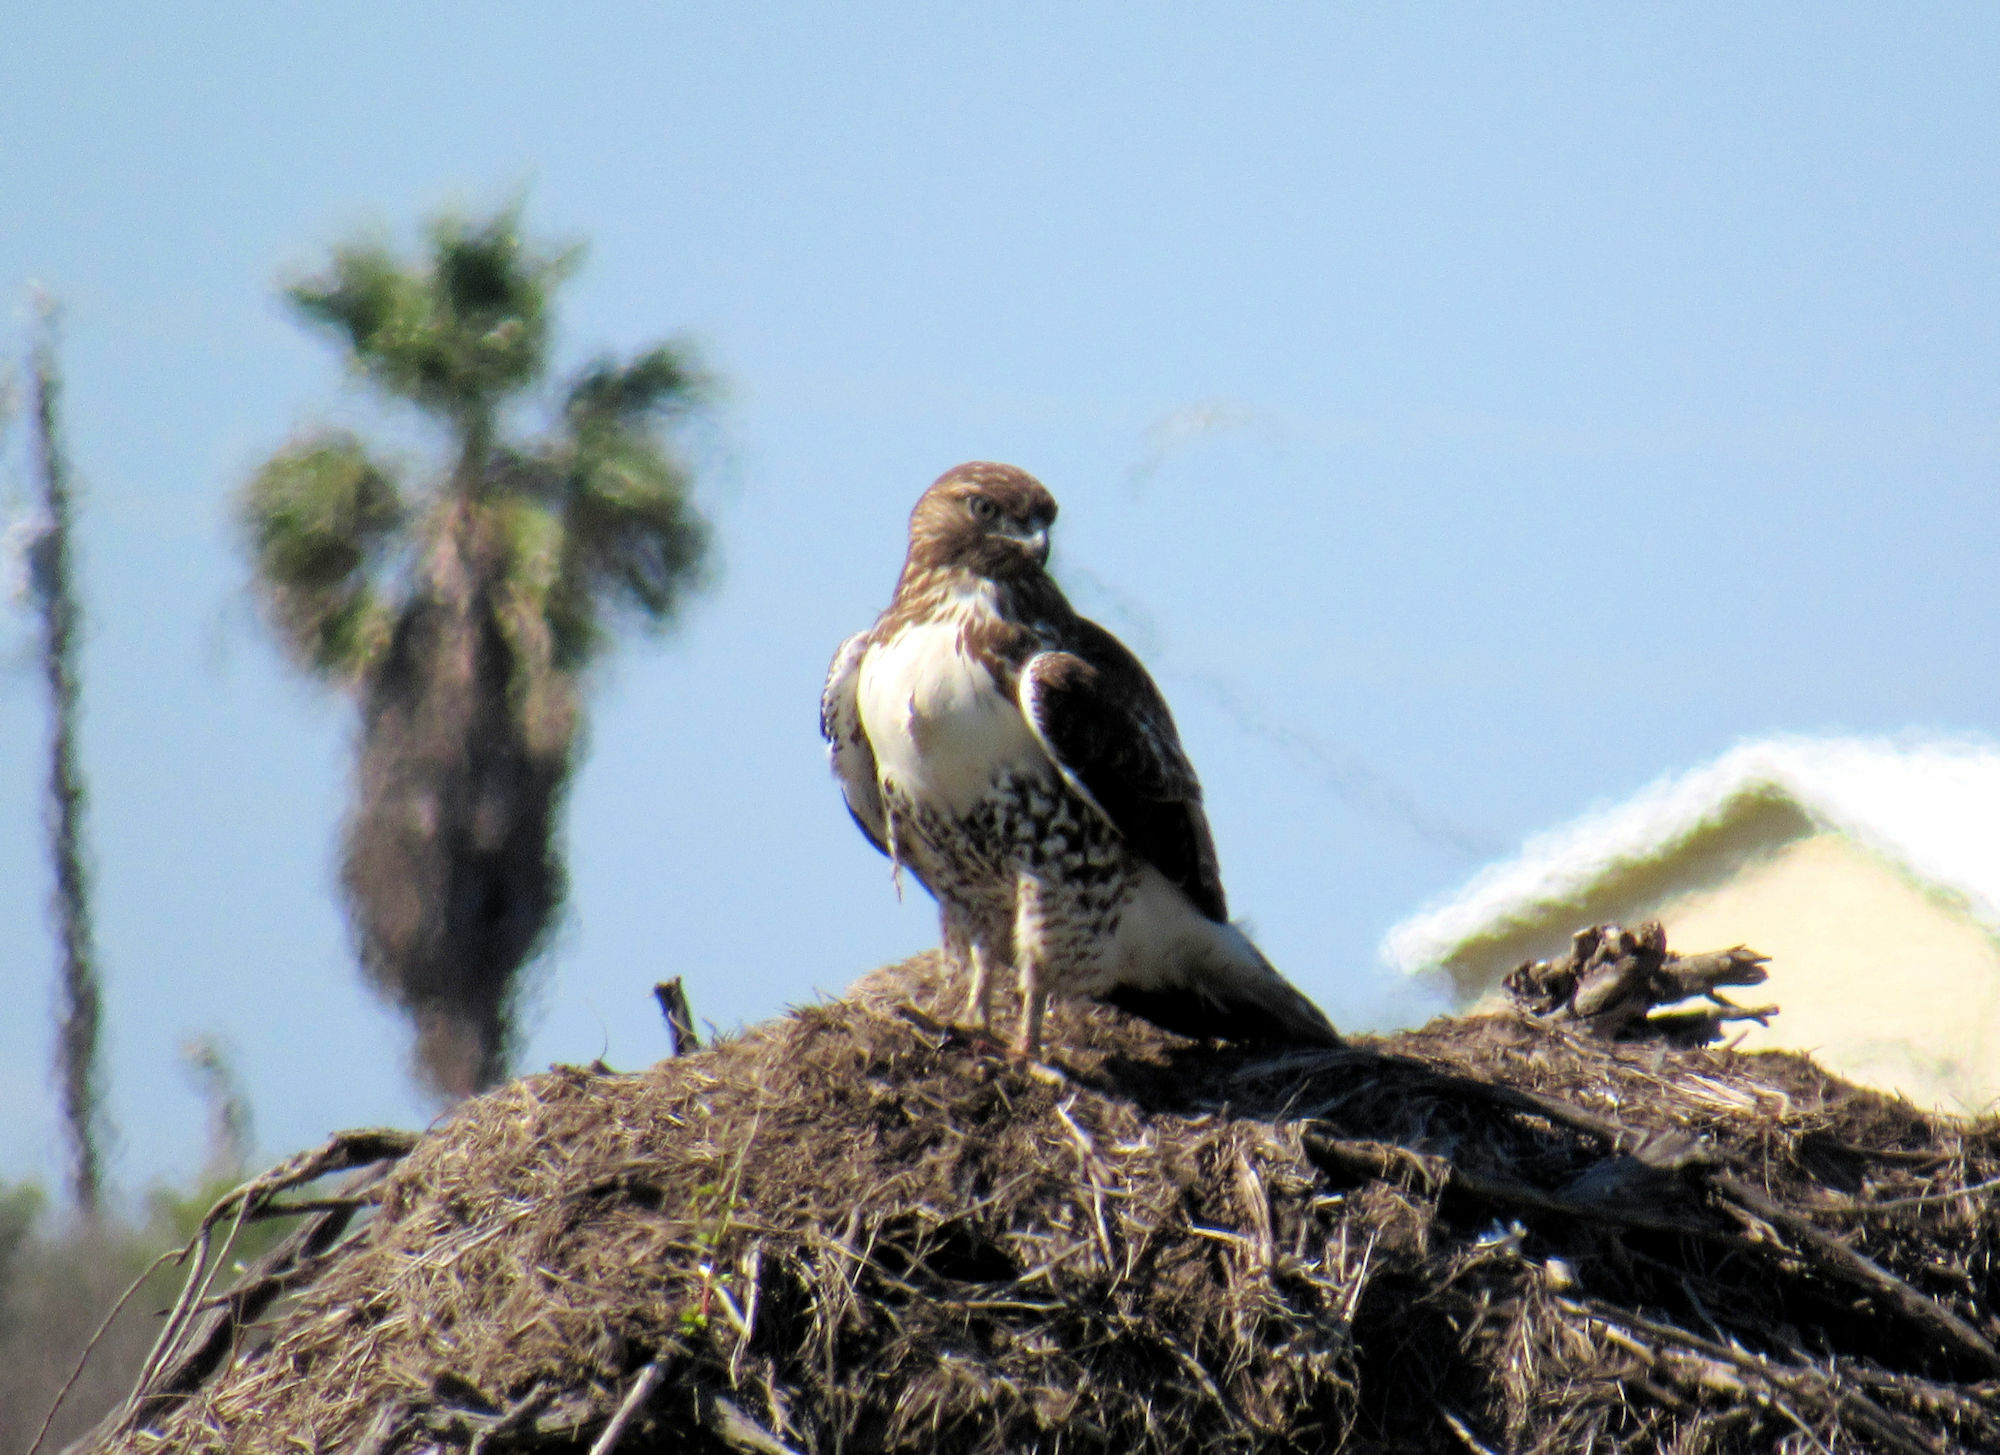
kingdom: Animalia
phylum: Chordata
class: Aves
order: Accipitriformes
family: Accipitridae
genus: Buteo
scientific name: Buteo jamaicensis
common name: Red-tailed hawk
